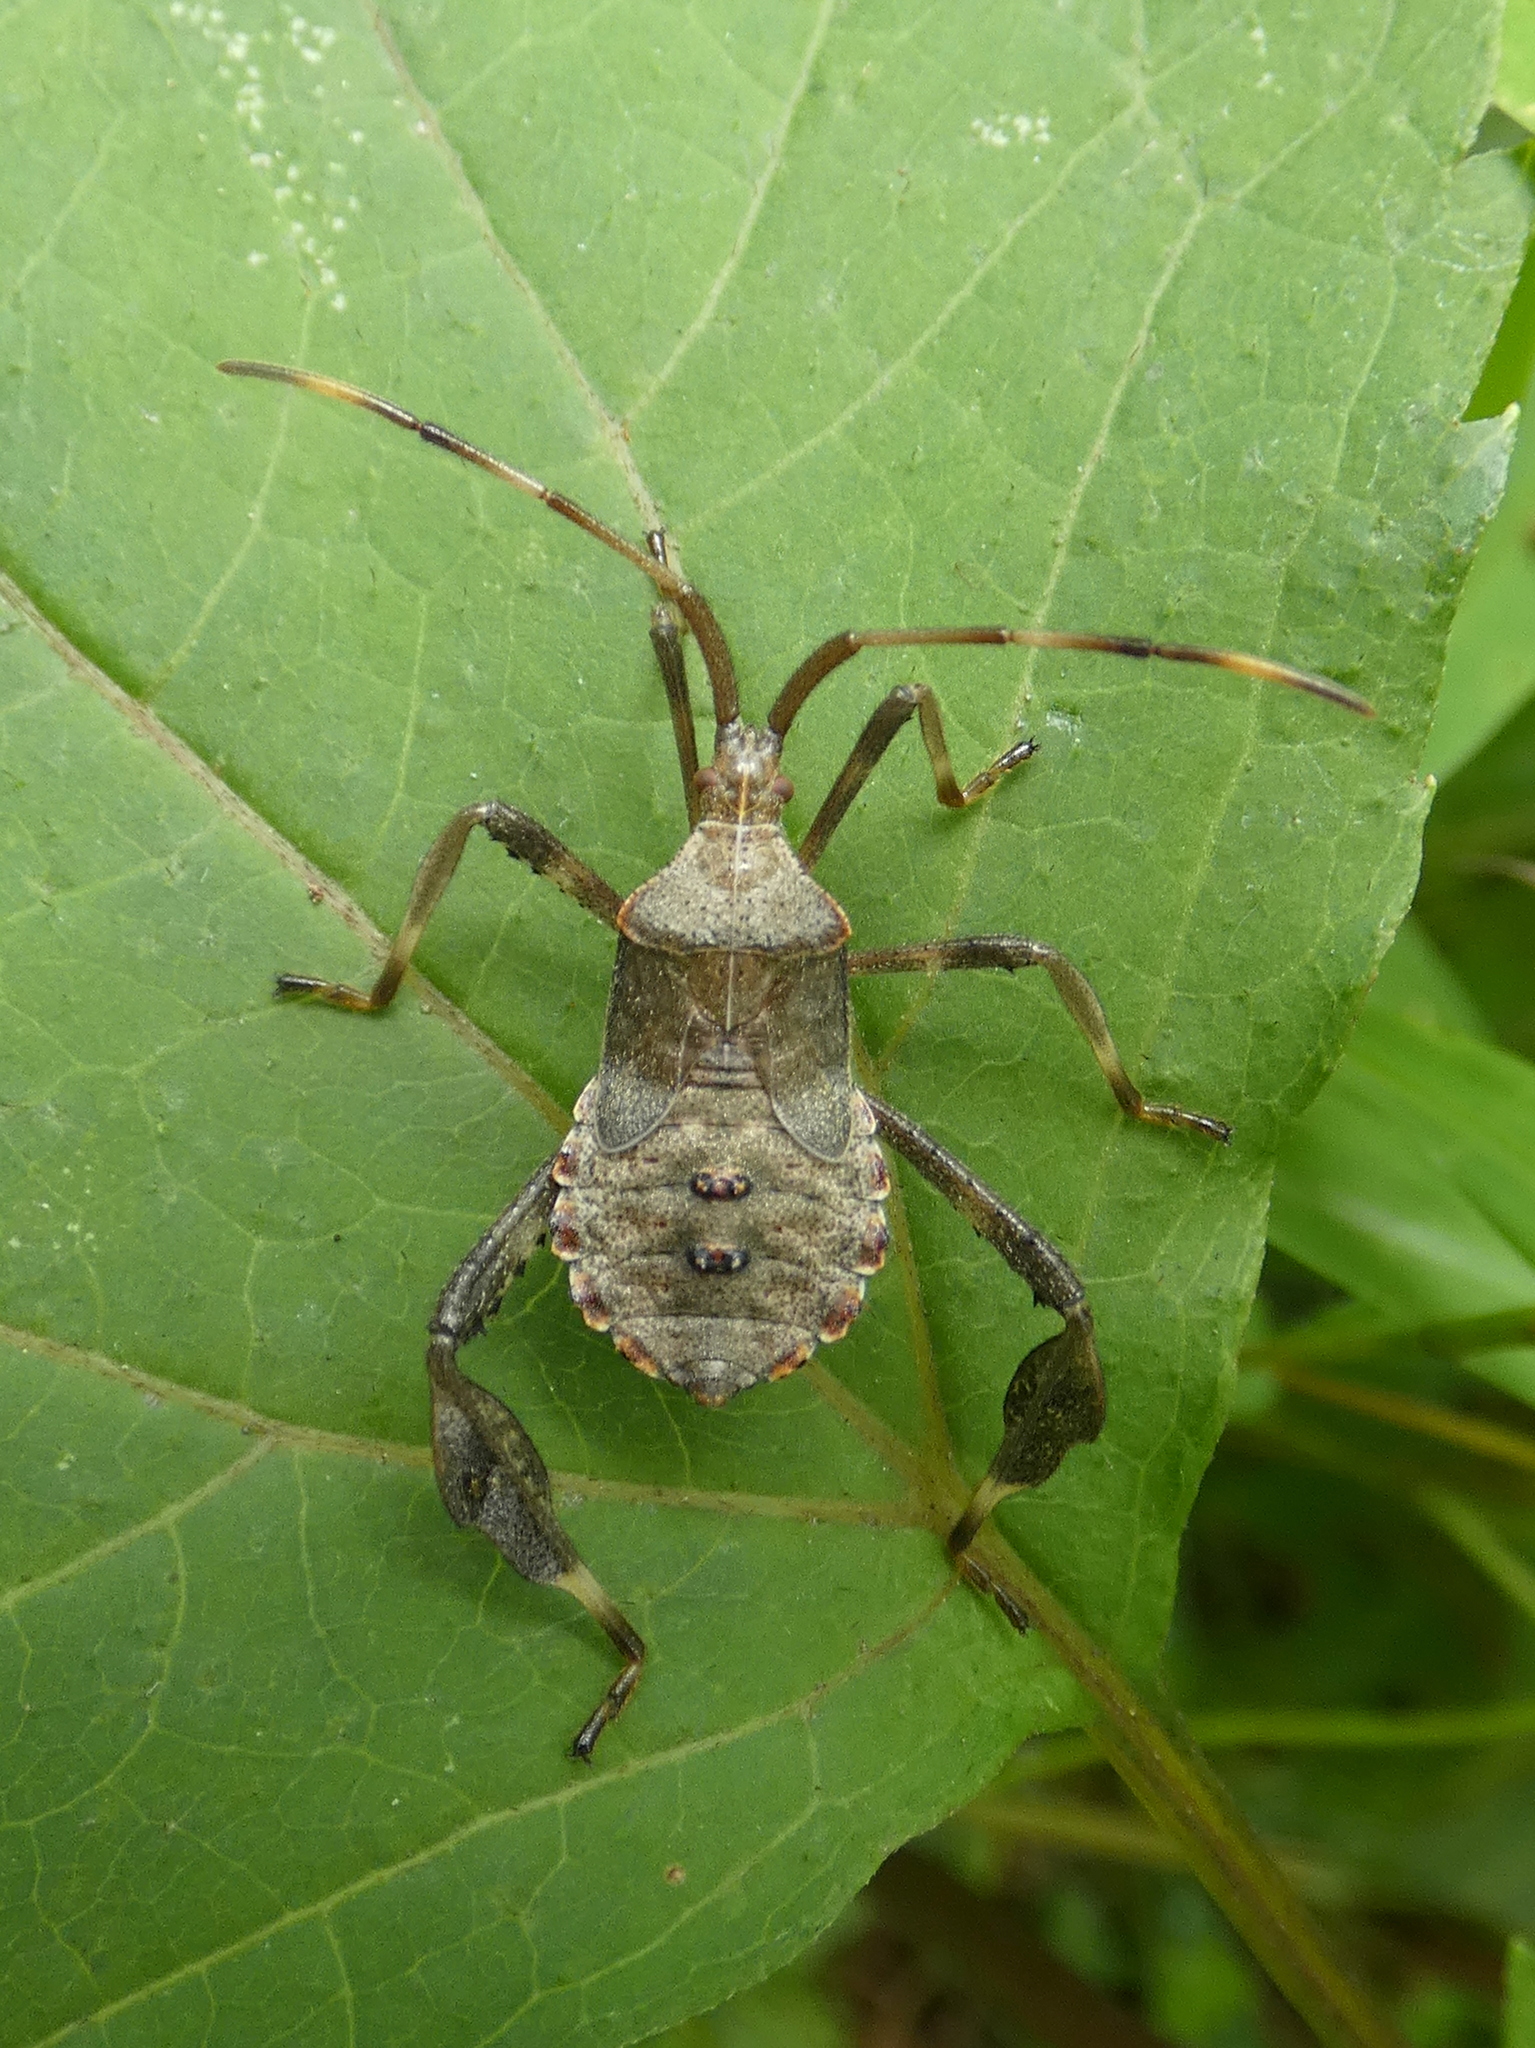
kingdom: Animalia
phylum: Arthropoda
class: Insecta
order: Hemiptera
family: Coreidae
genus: Acanthocephala
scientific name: Acanthocephala terminalis
